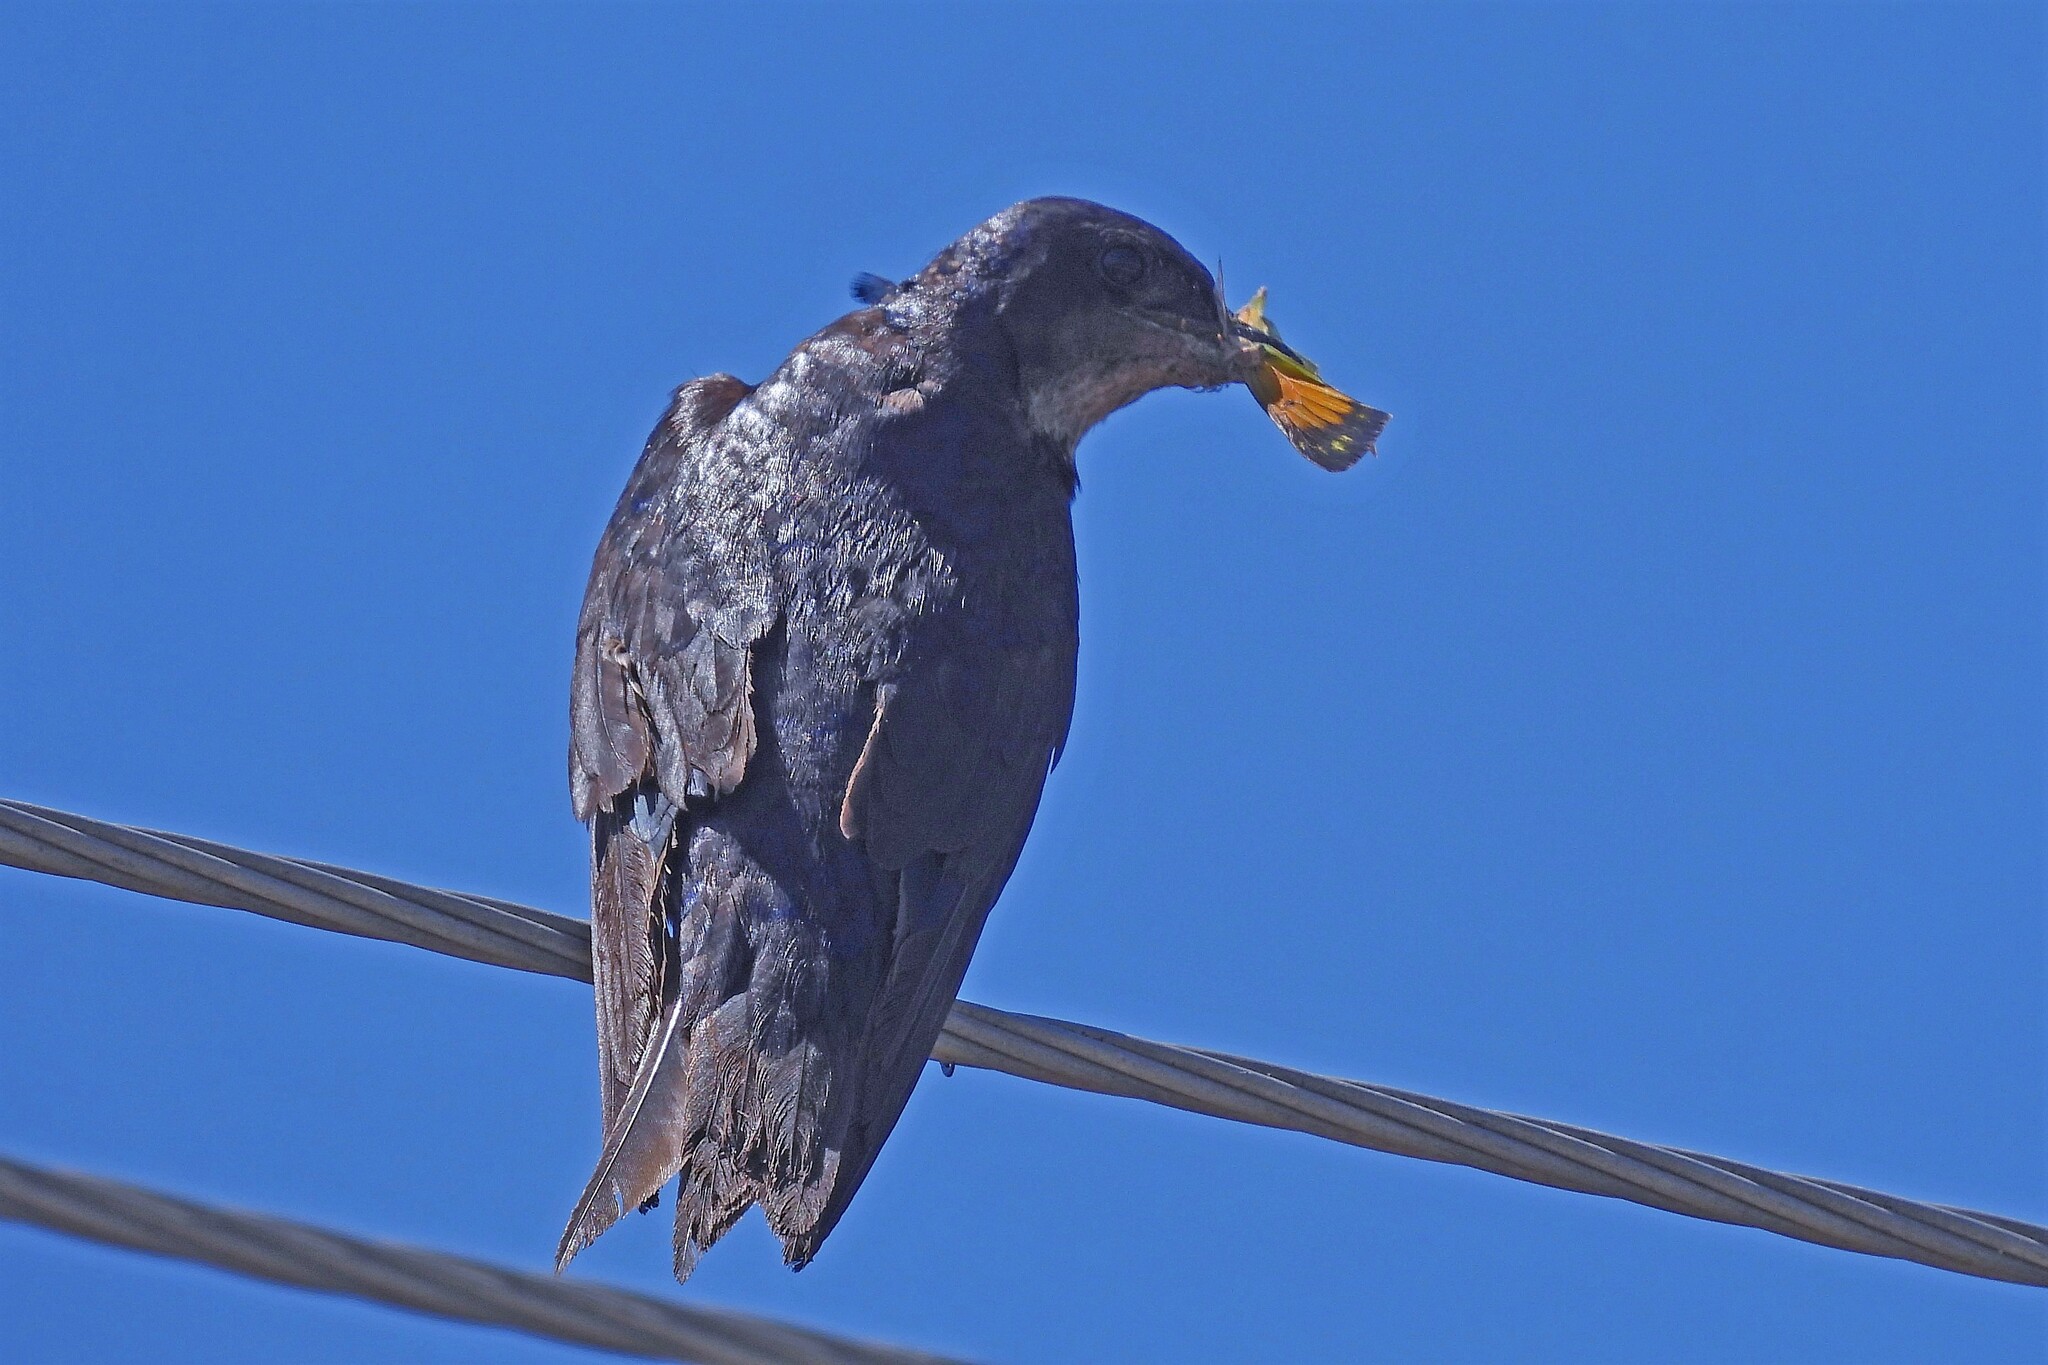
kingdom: Animalia
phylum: Chordata
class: Aves
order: Passeriformes
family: Hirundinidae
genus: Progne
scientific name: Progne chalybea
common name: Grey-breasted martin
